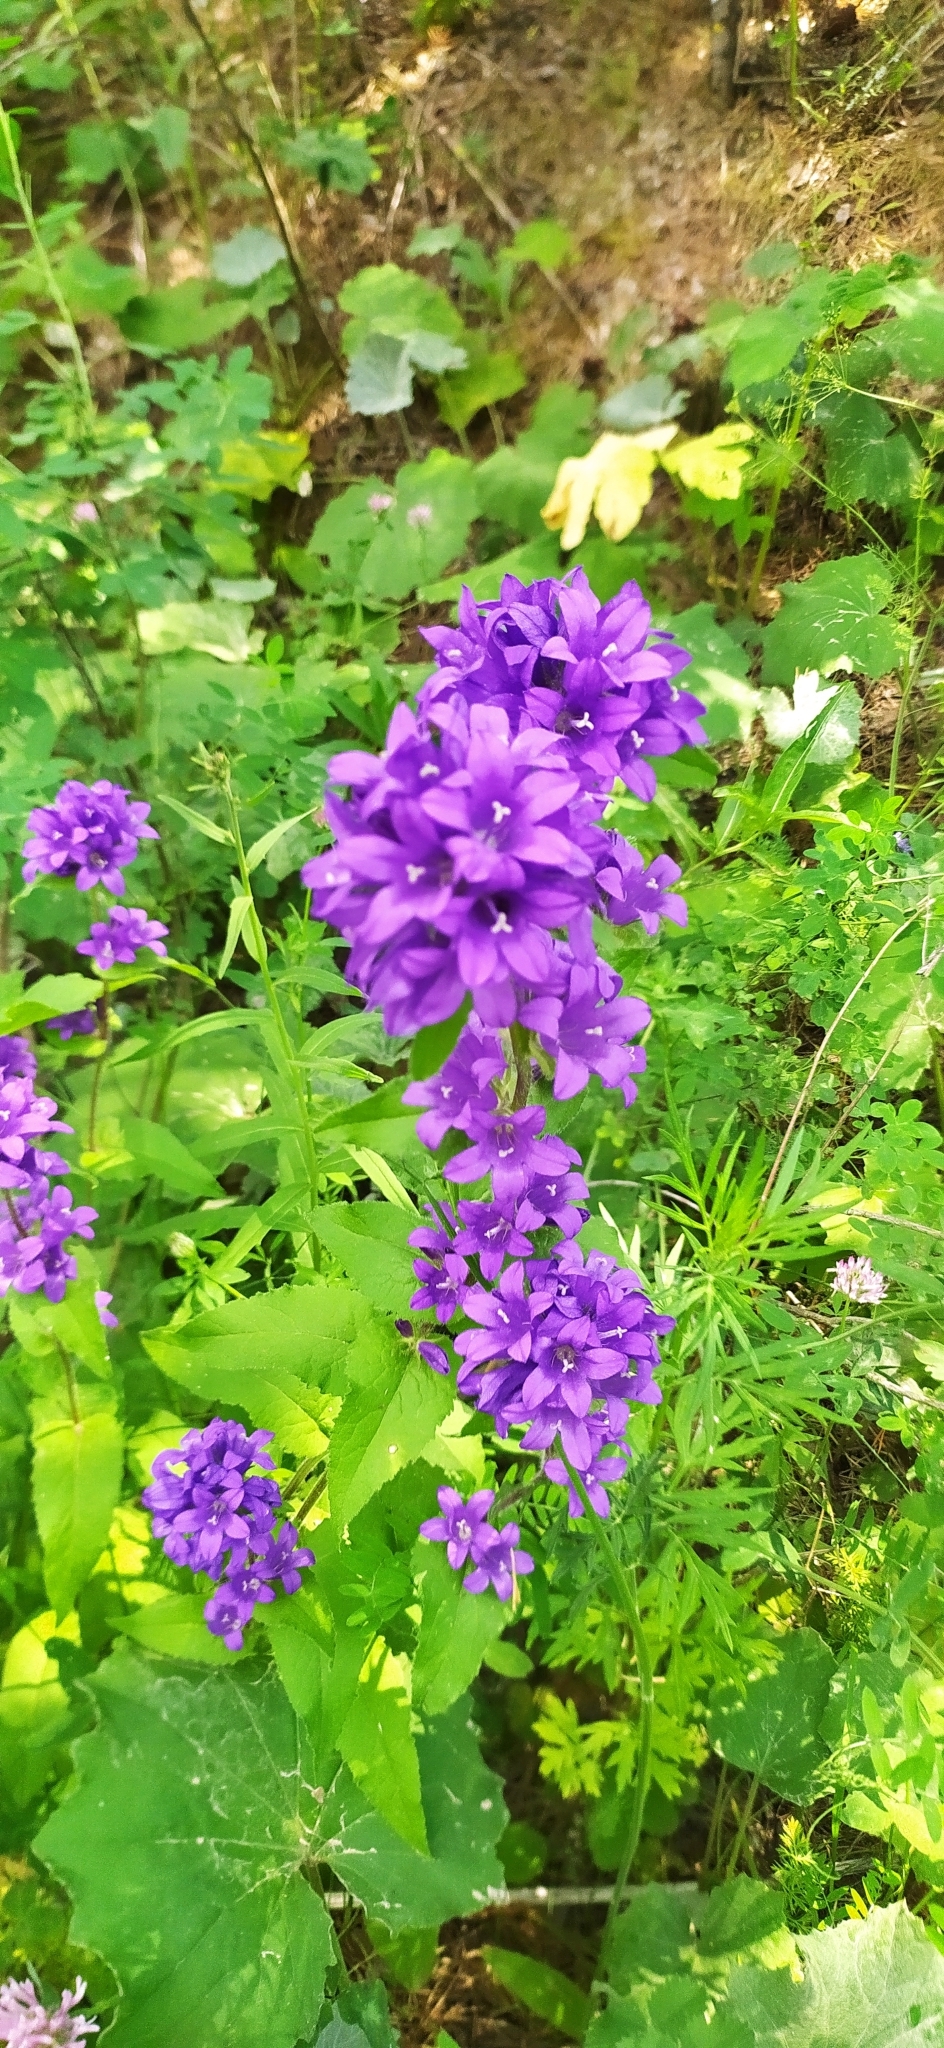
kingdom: Plantae
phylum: Tracheophyta
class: Magnoliopsida
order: Asterales
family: Campanulaceae
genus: Campanula
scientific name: Campanula glomerata
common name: Clustered bellflower
